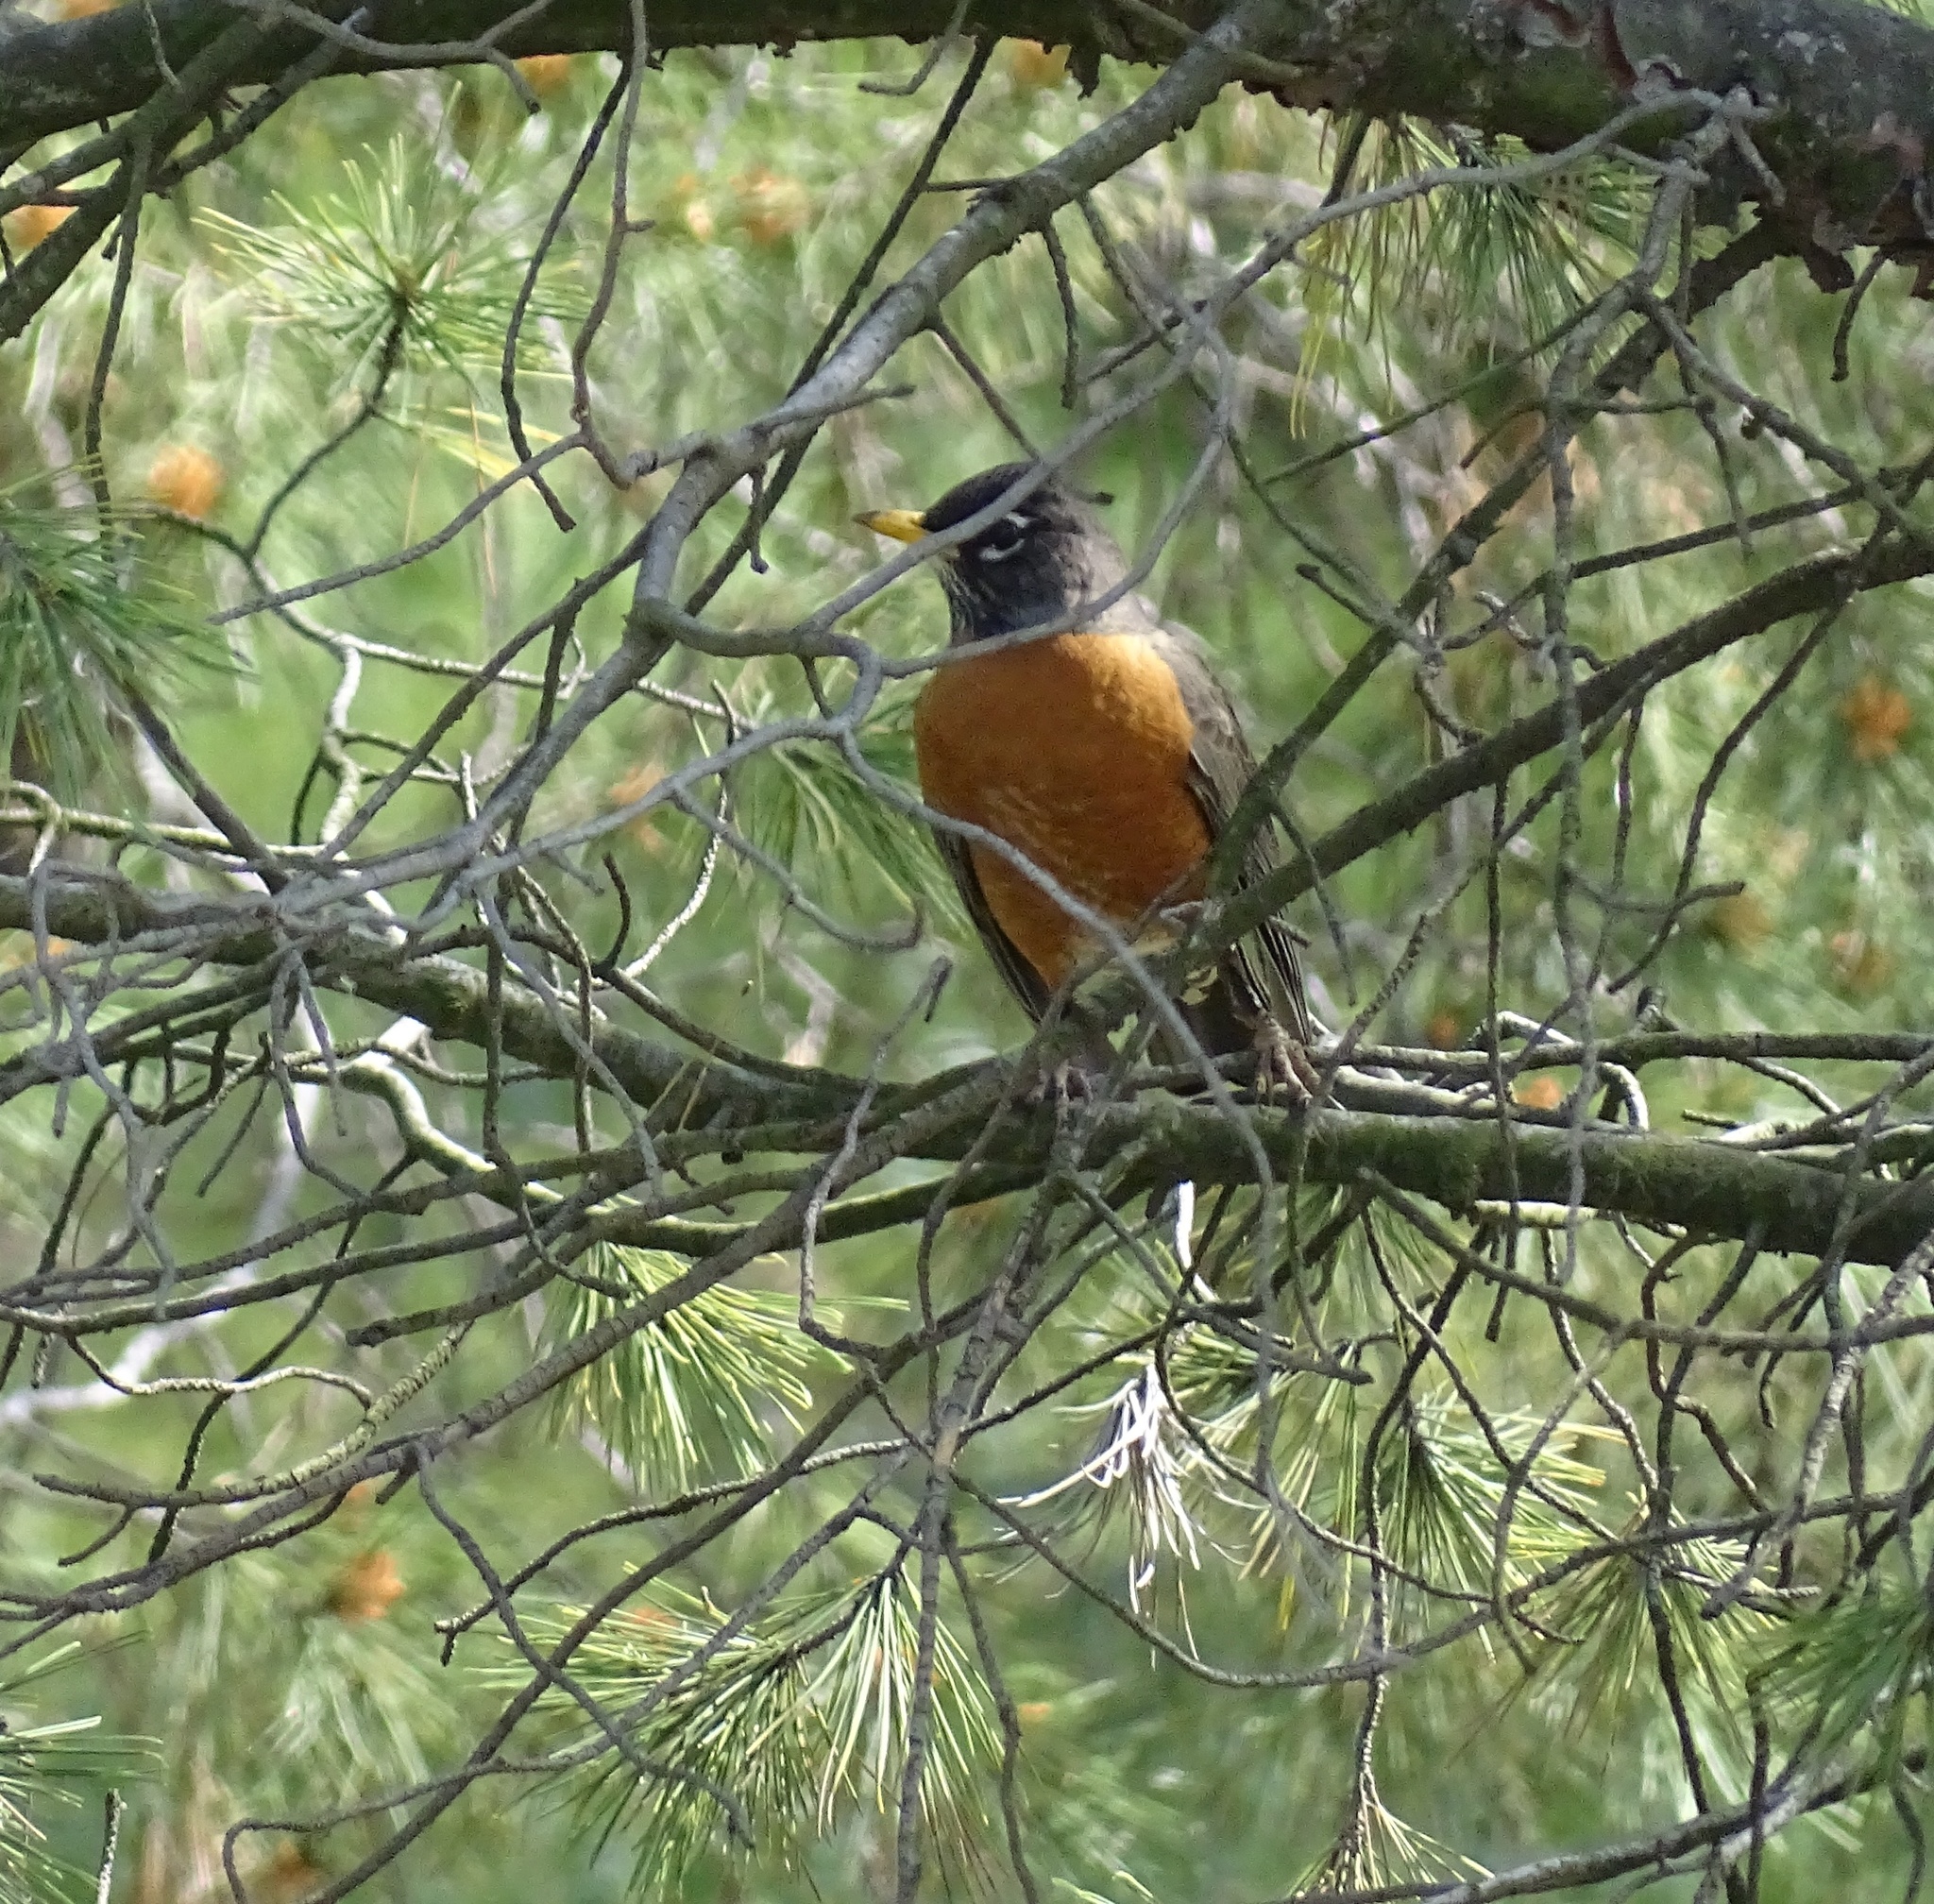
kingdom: Animalia
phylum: Chordata
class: Aves
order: Passeriformes
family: Turdidae
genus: Turdus
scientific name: Turdus migratorius
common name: American robin
